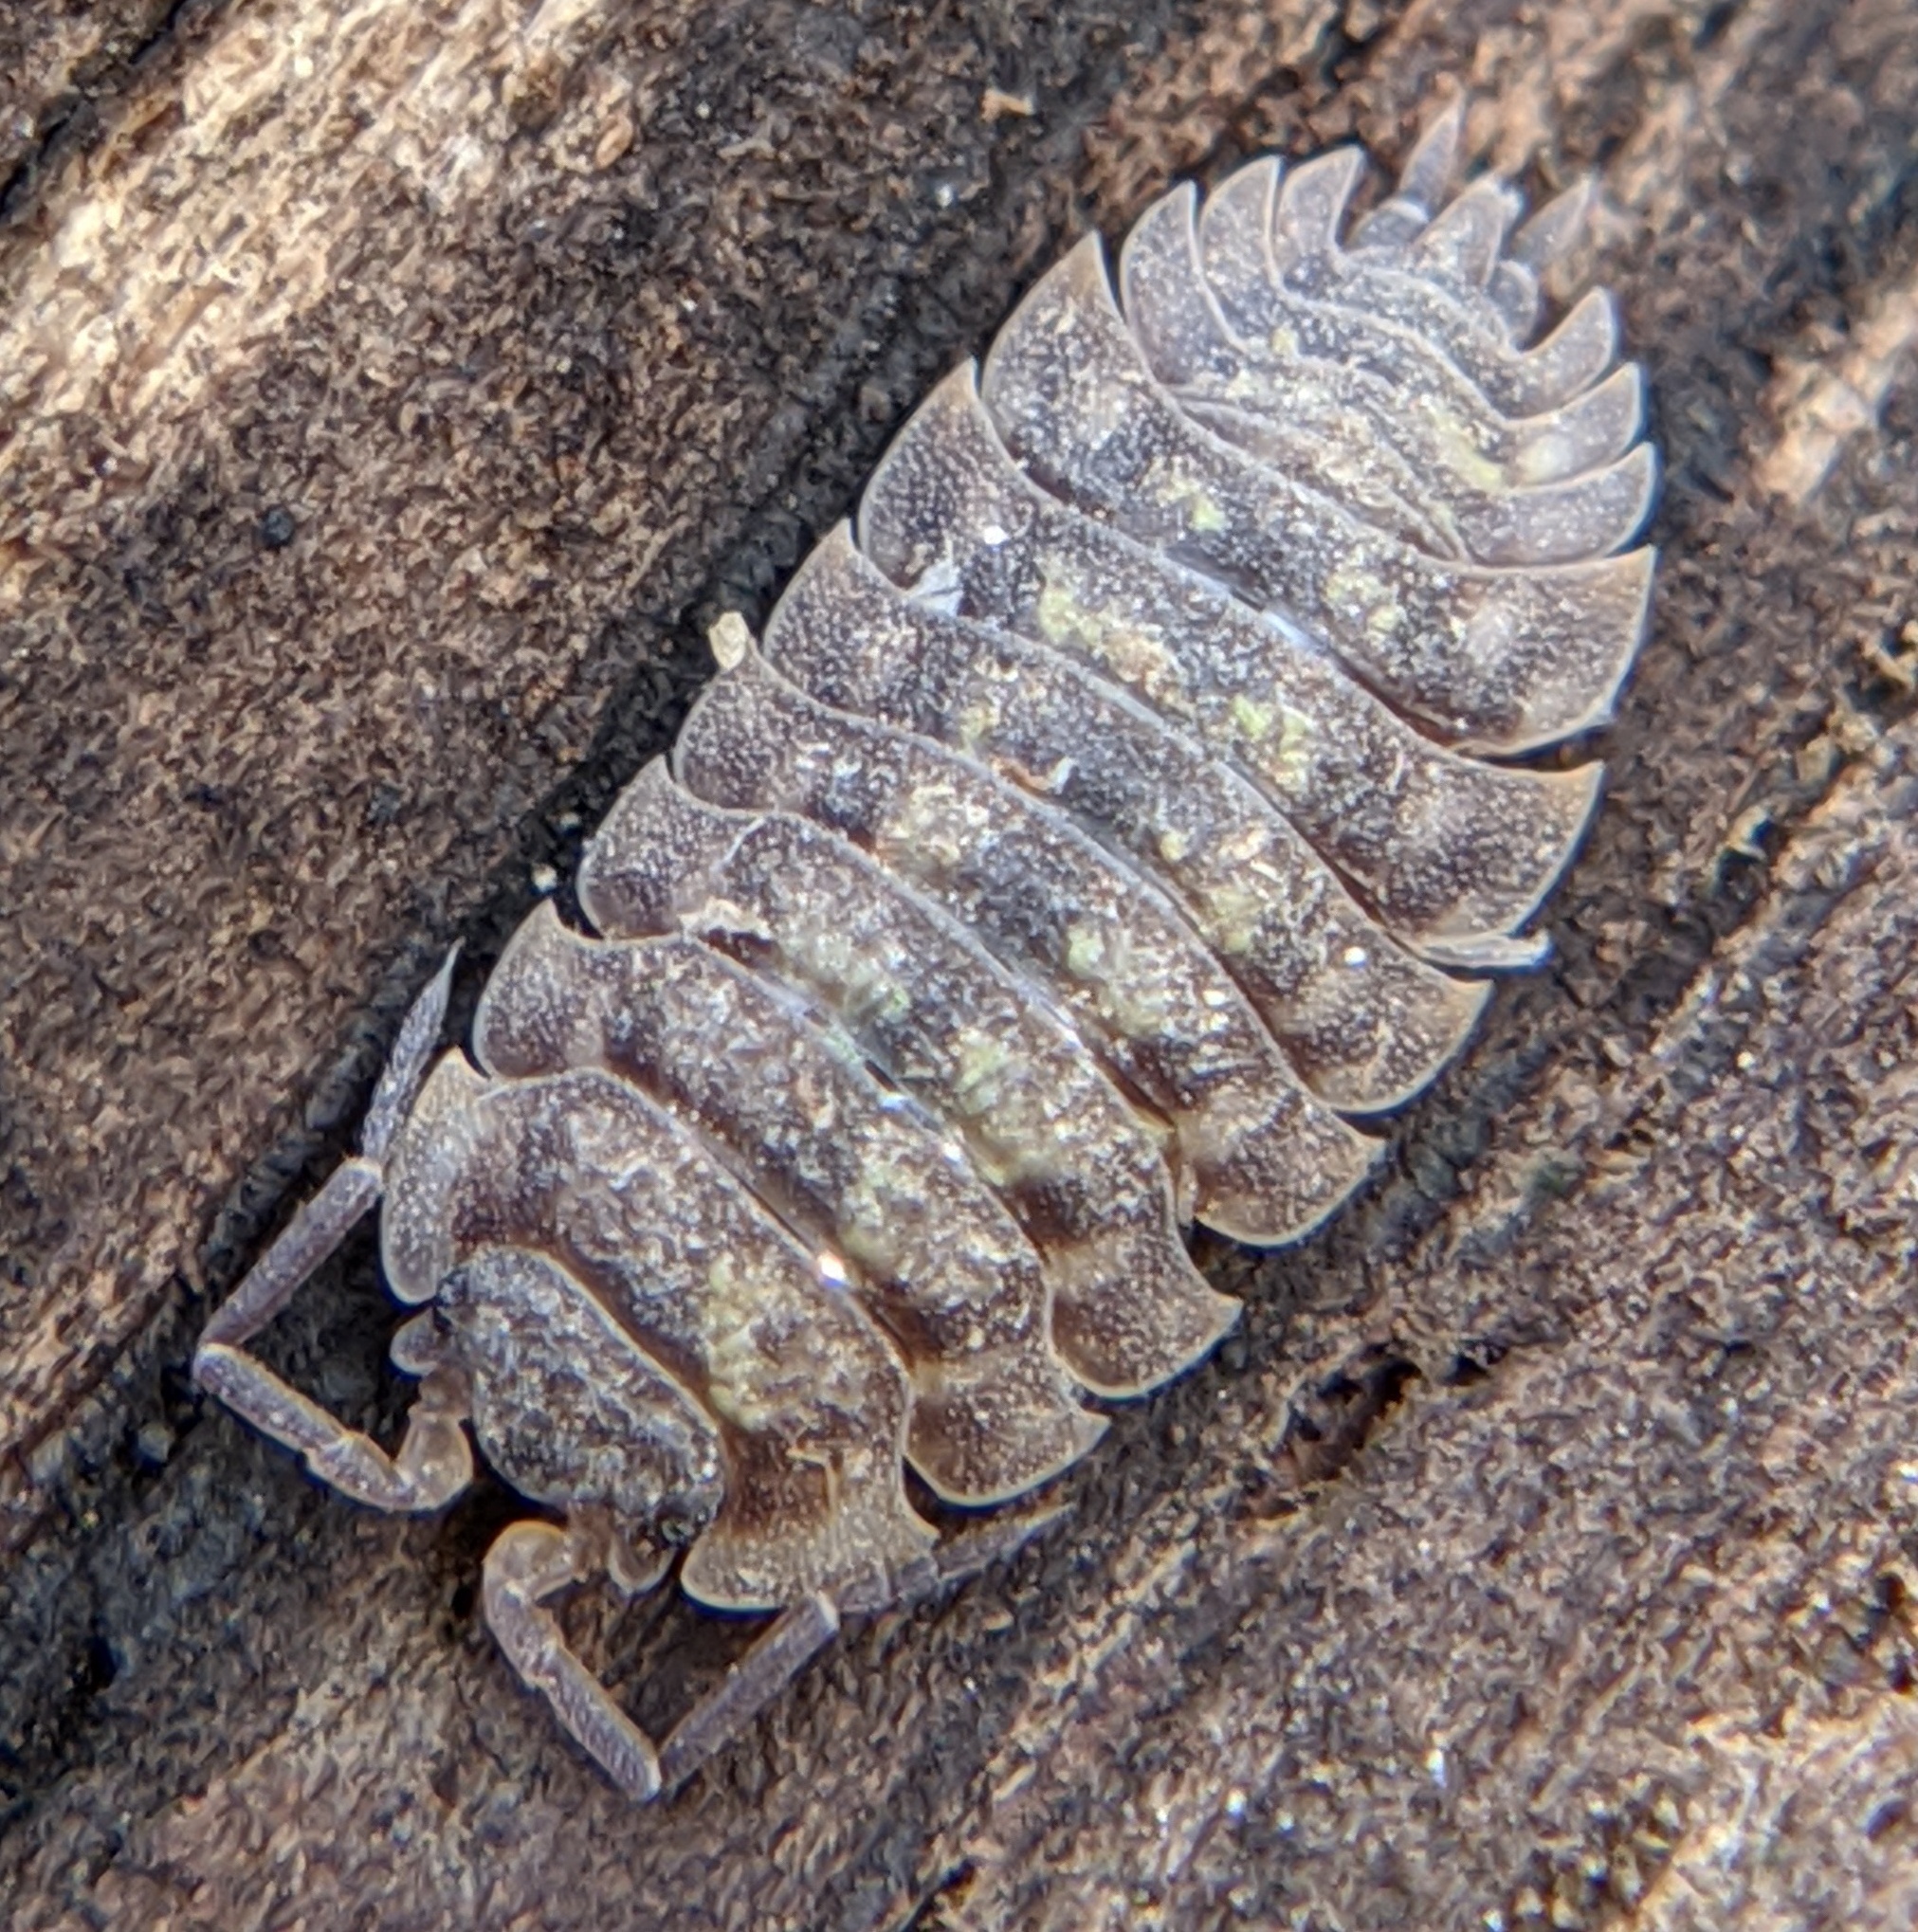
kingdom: Animalia
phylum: Arthropoda
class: Malacostraca
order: Isopoda
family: Oniscidae
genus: Oniscus
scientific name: Oniscus asellus
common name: Common shiny woodlouse
